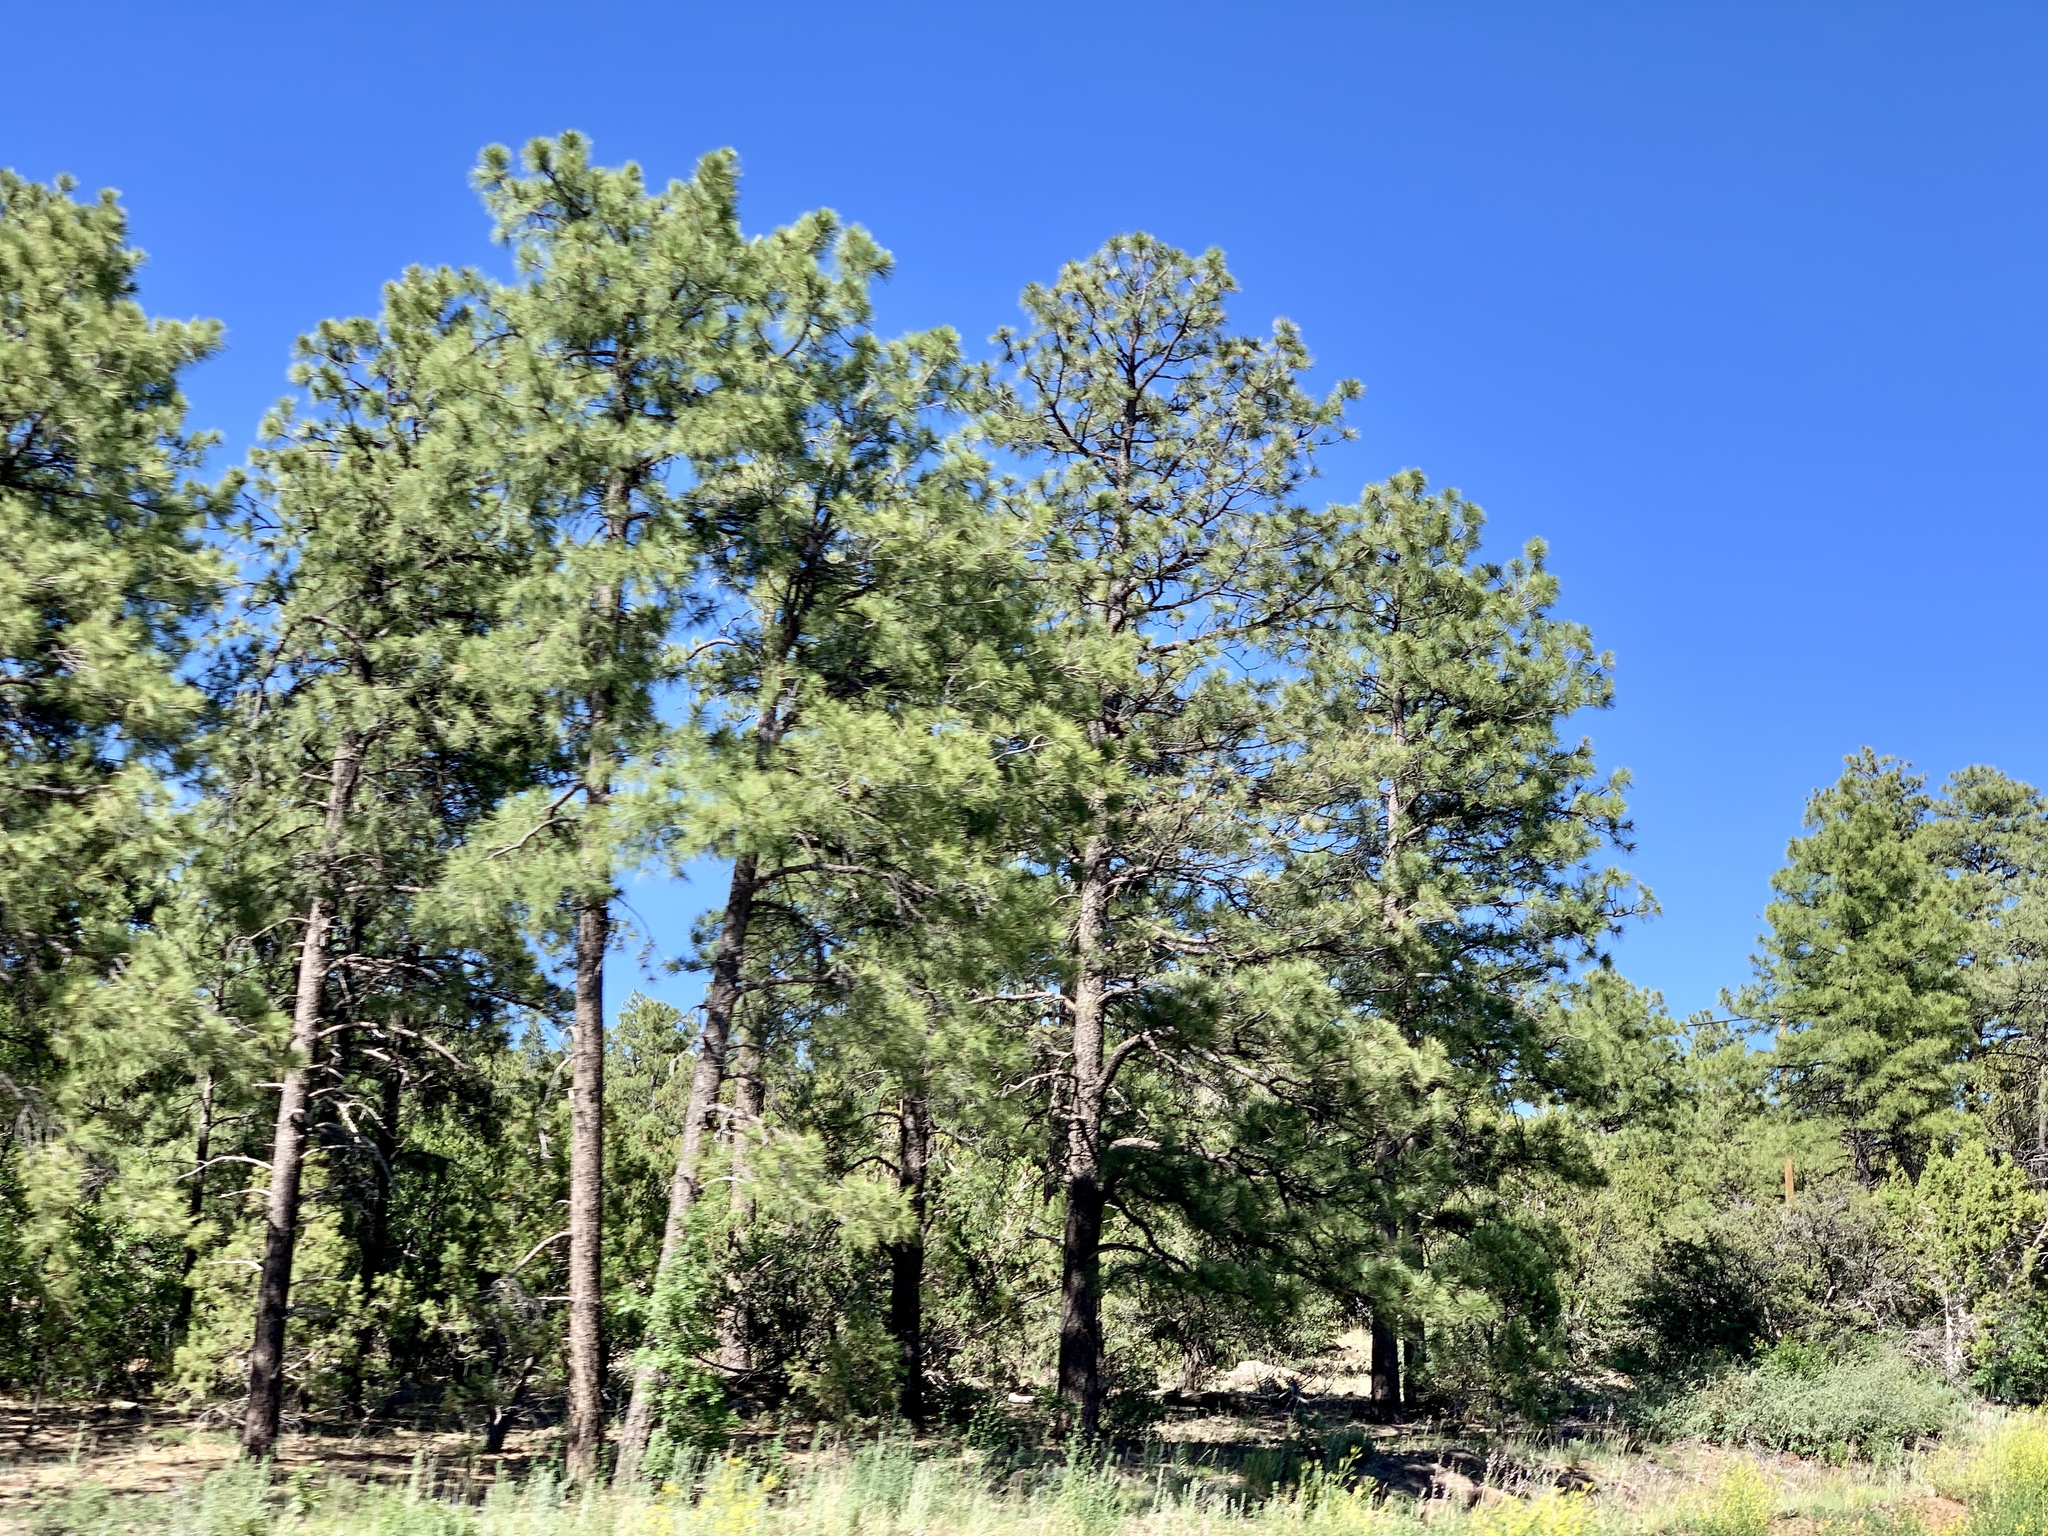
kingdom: Plantae
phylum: Tracheophyta
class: Pinopsida
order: Pinales
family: Pinaceae
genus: Pinus
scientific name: Pinus ponderosa
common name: Western yellow-pine
